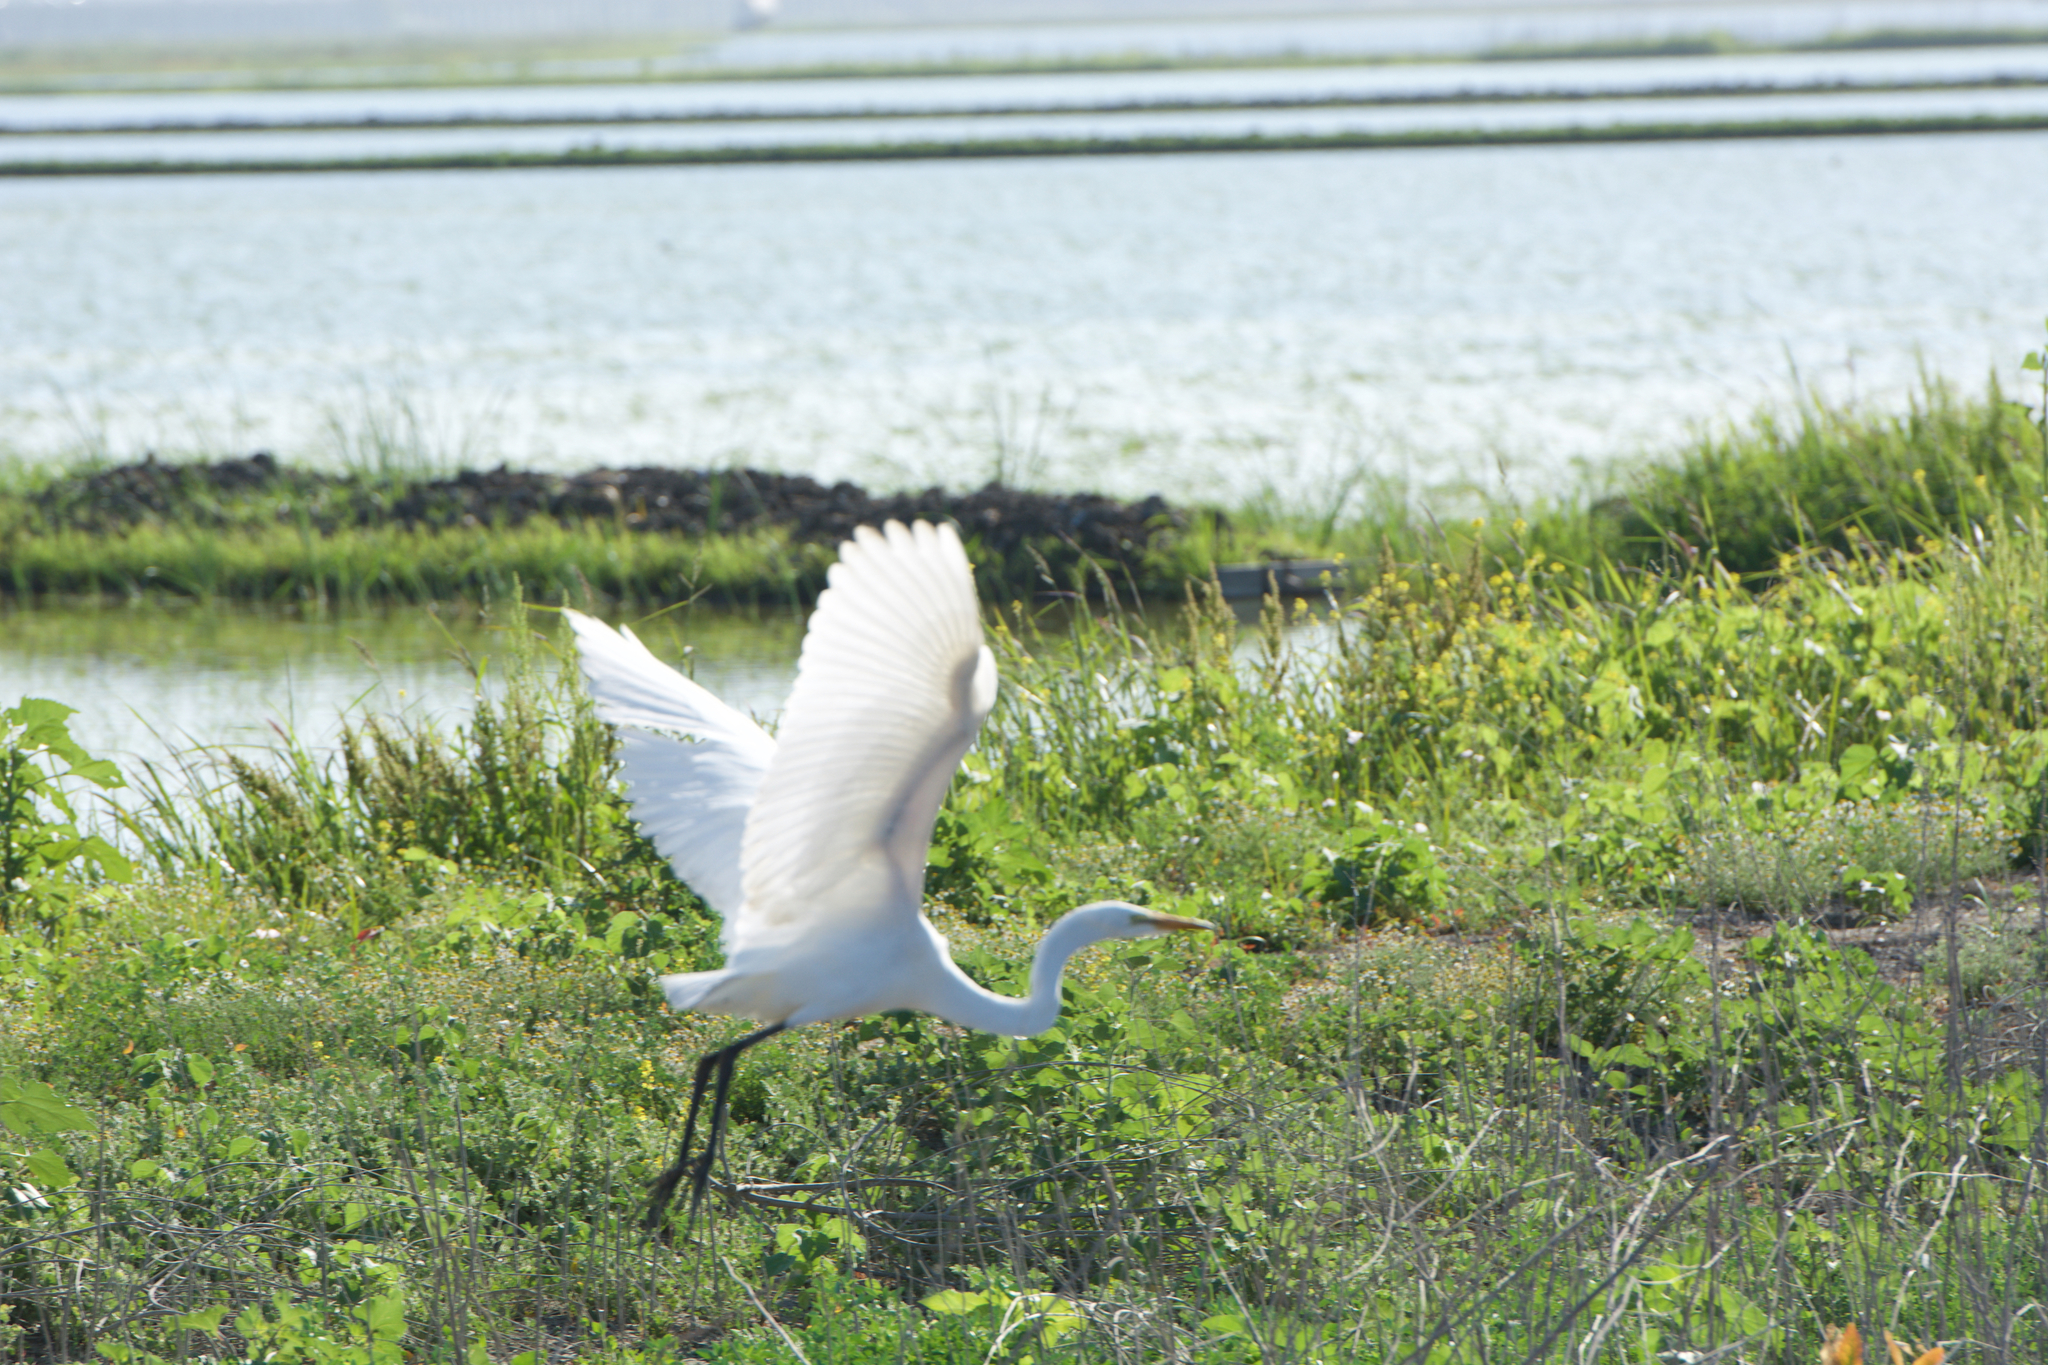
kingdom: Animalia
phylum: Chordata
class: Aves
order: Pelecaniformes
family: Ardeidae
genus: Ardea
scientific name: Ardea alba
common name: Great egret
